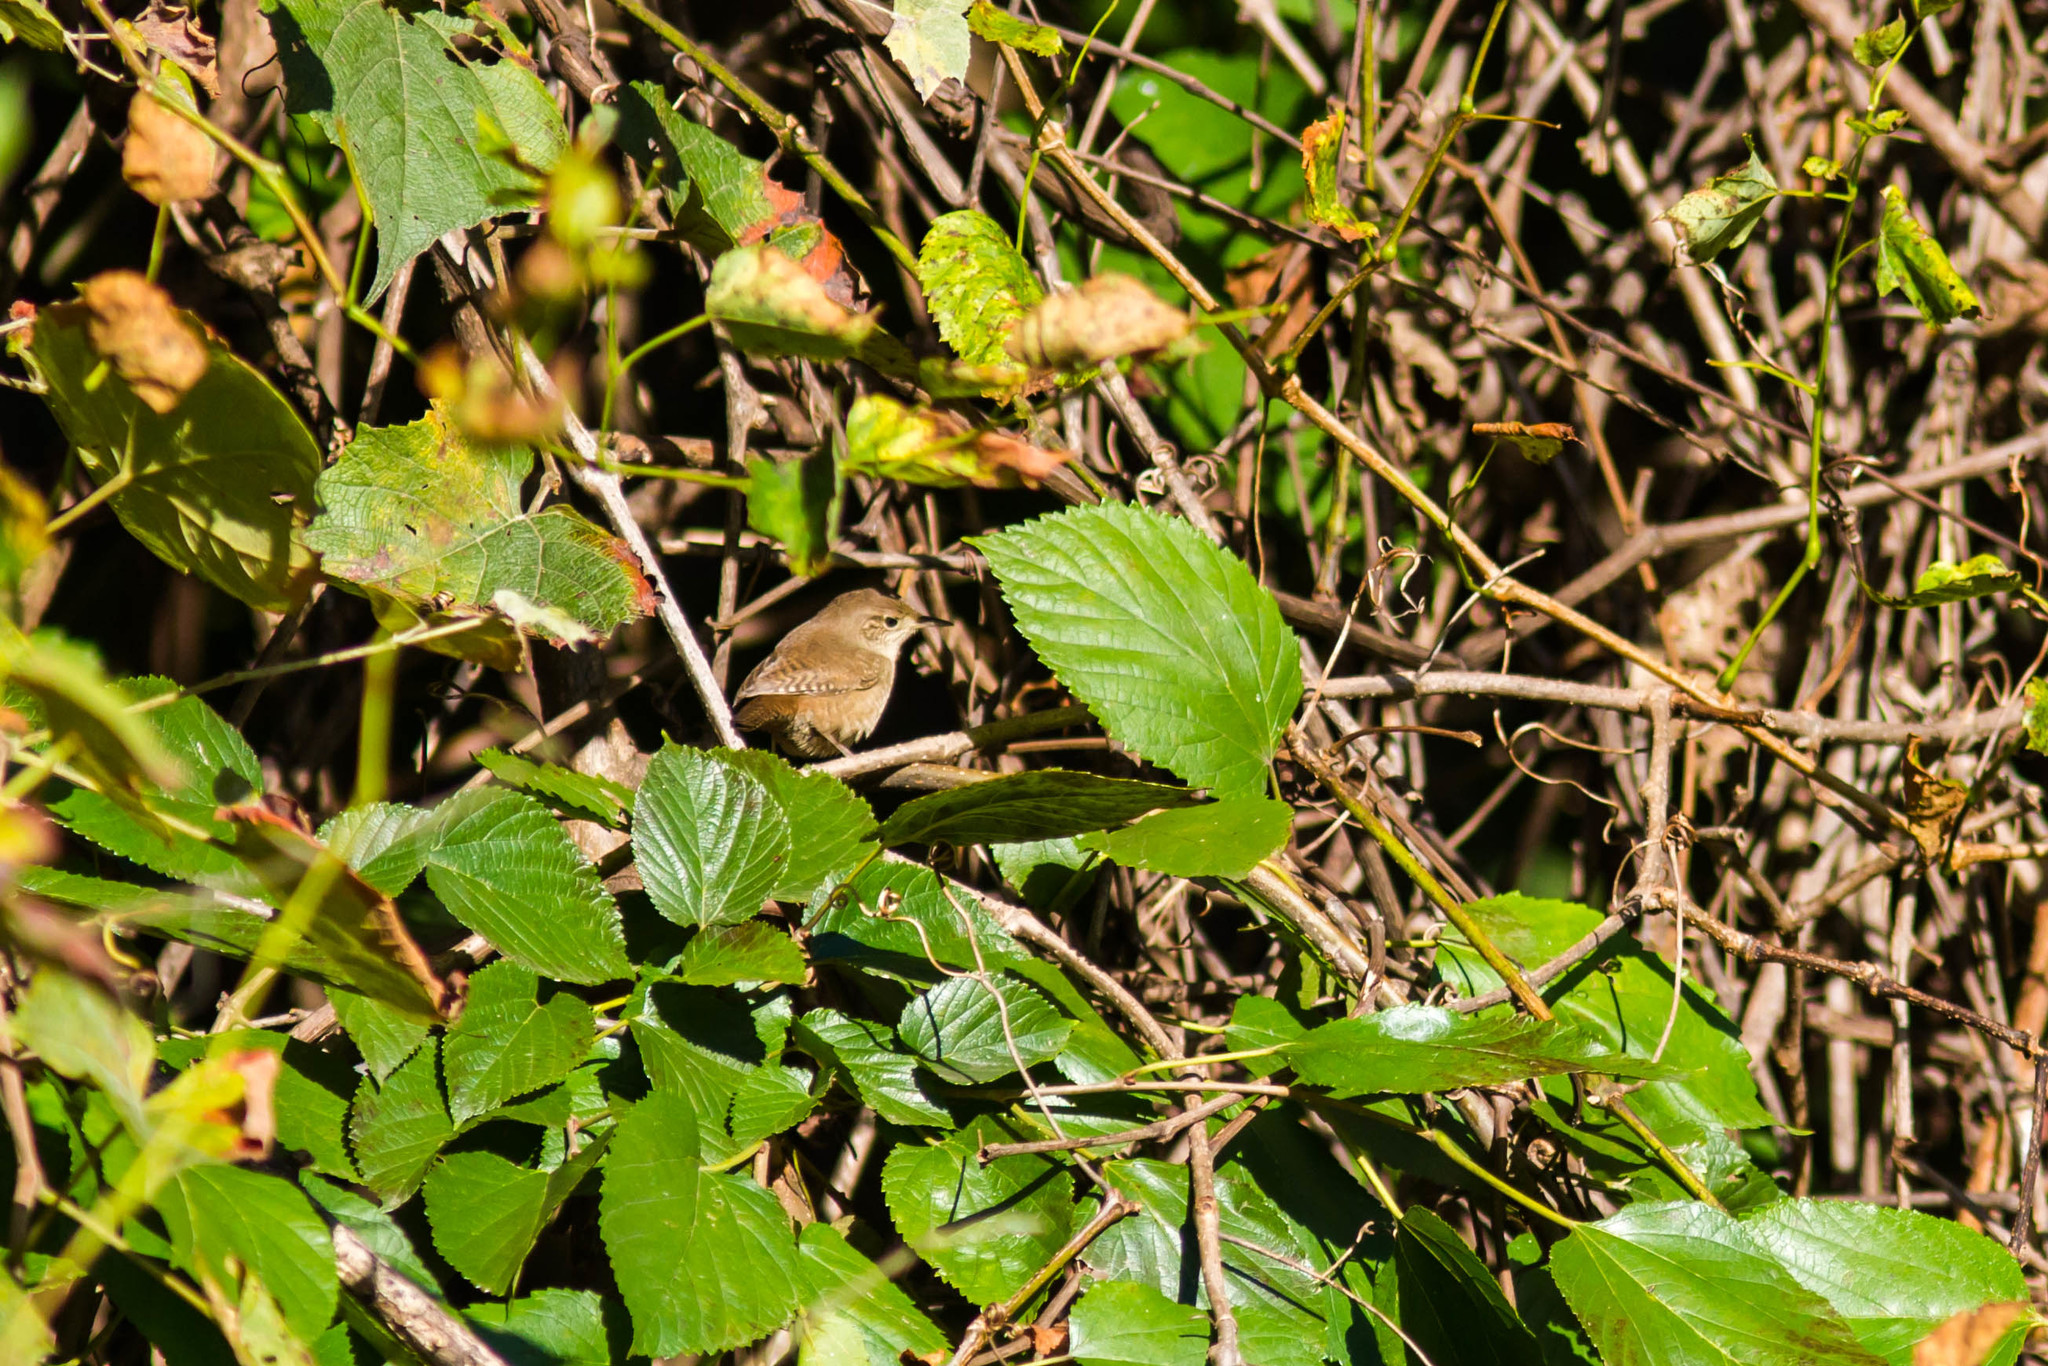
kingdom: Animalia
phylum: Chordata
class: Aves
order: Passeriformes
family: Troglodytidae
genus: Troglodytes
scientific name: Troglodytes aedon
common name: House wren
